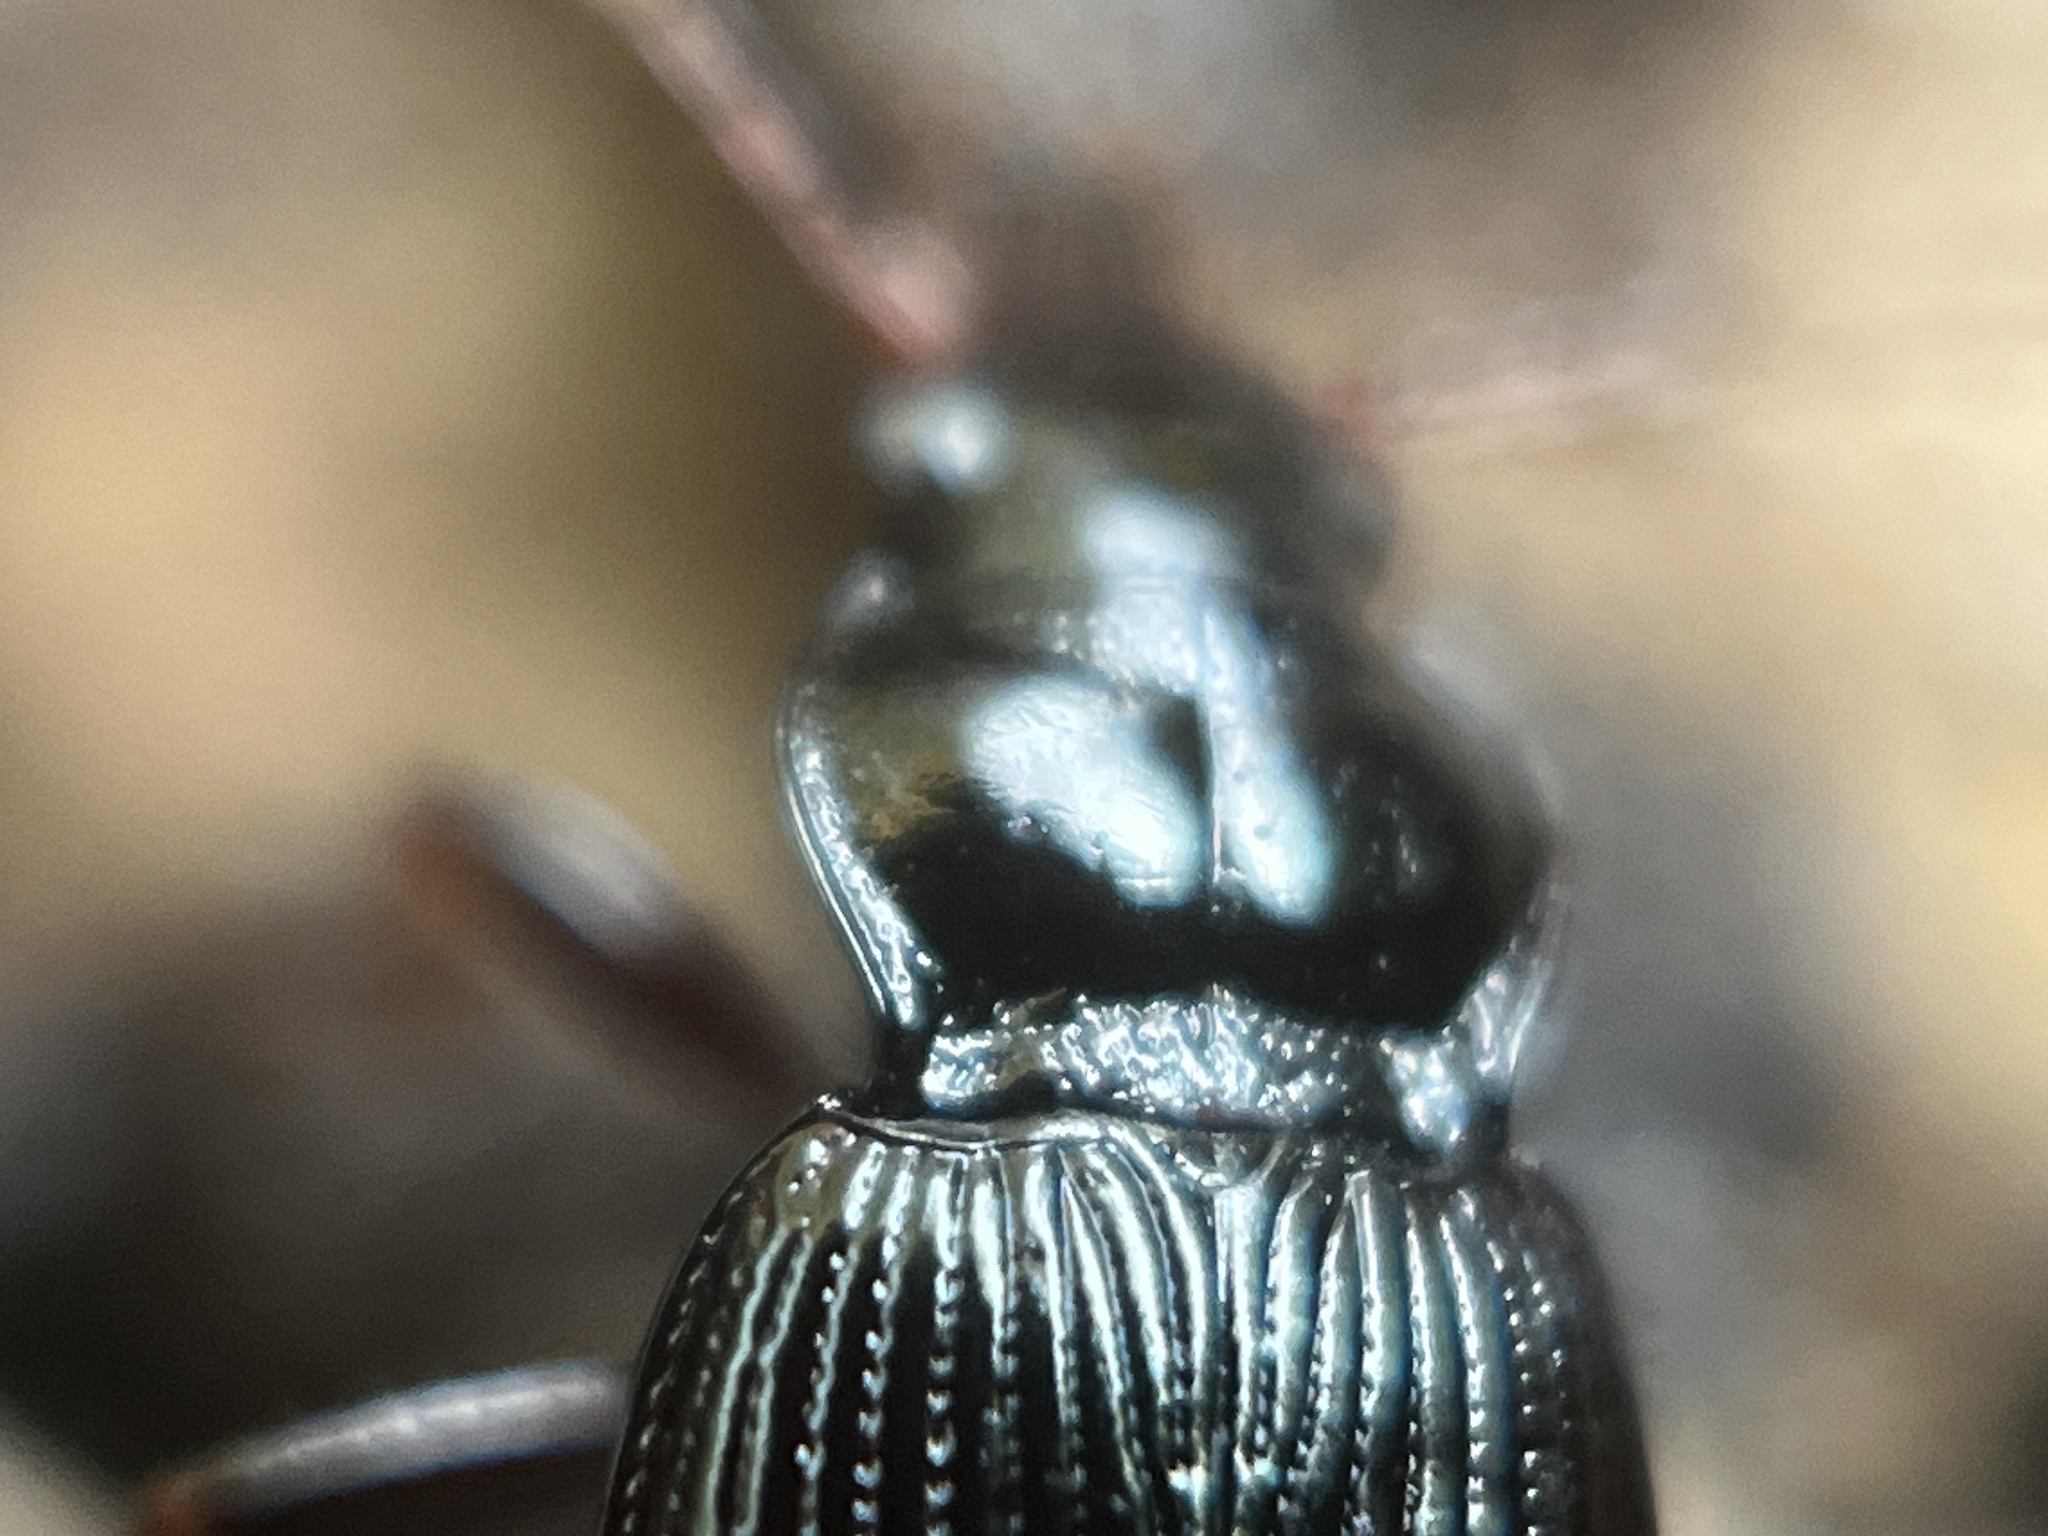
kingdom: Animalia
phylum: Arthropoda
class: Insecta
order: Coleoptera
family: Carabidae
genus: Nebria
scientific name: Nebria brevicollis
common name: Short-necked gazelle beetle
